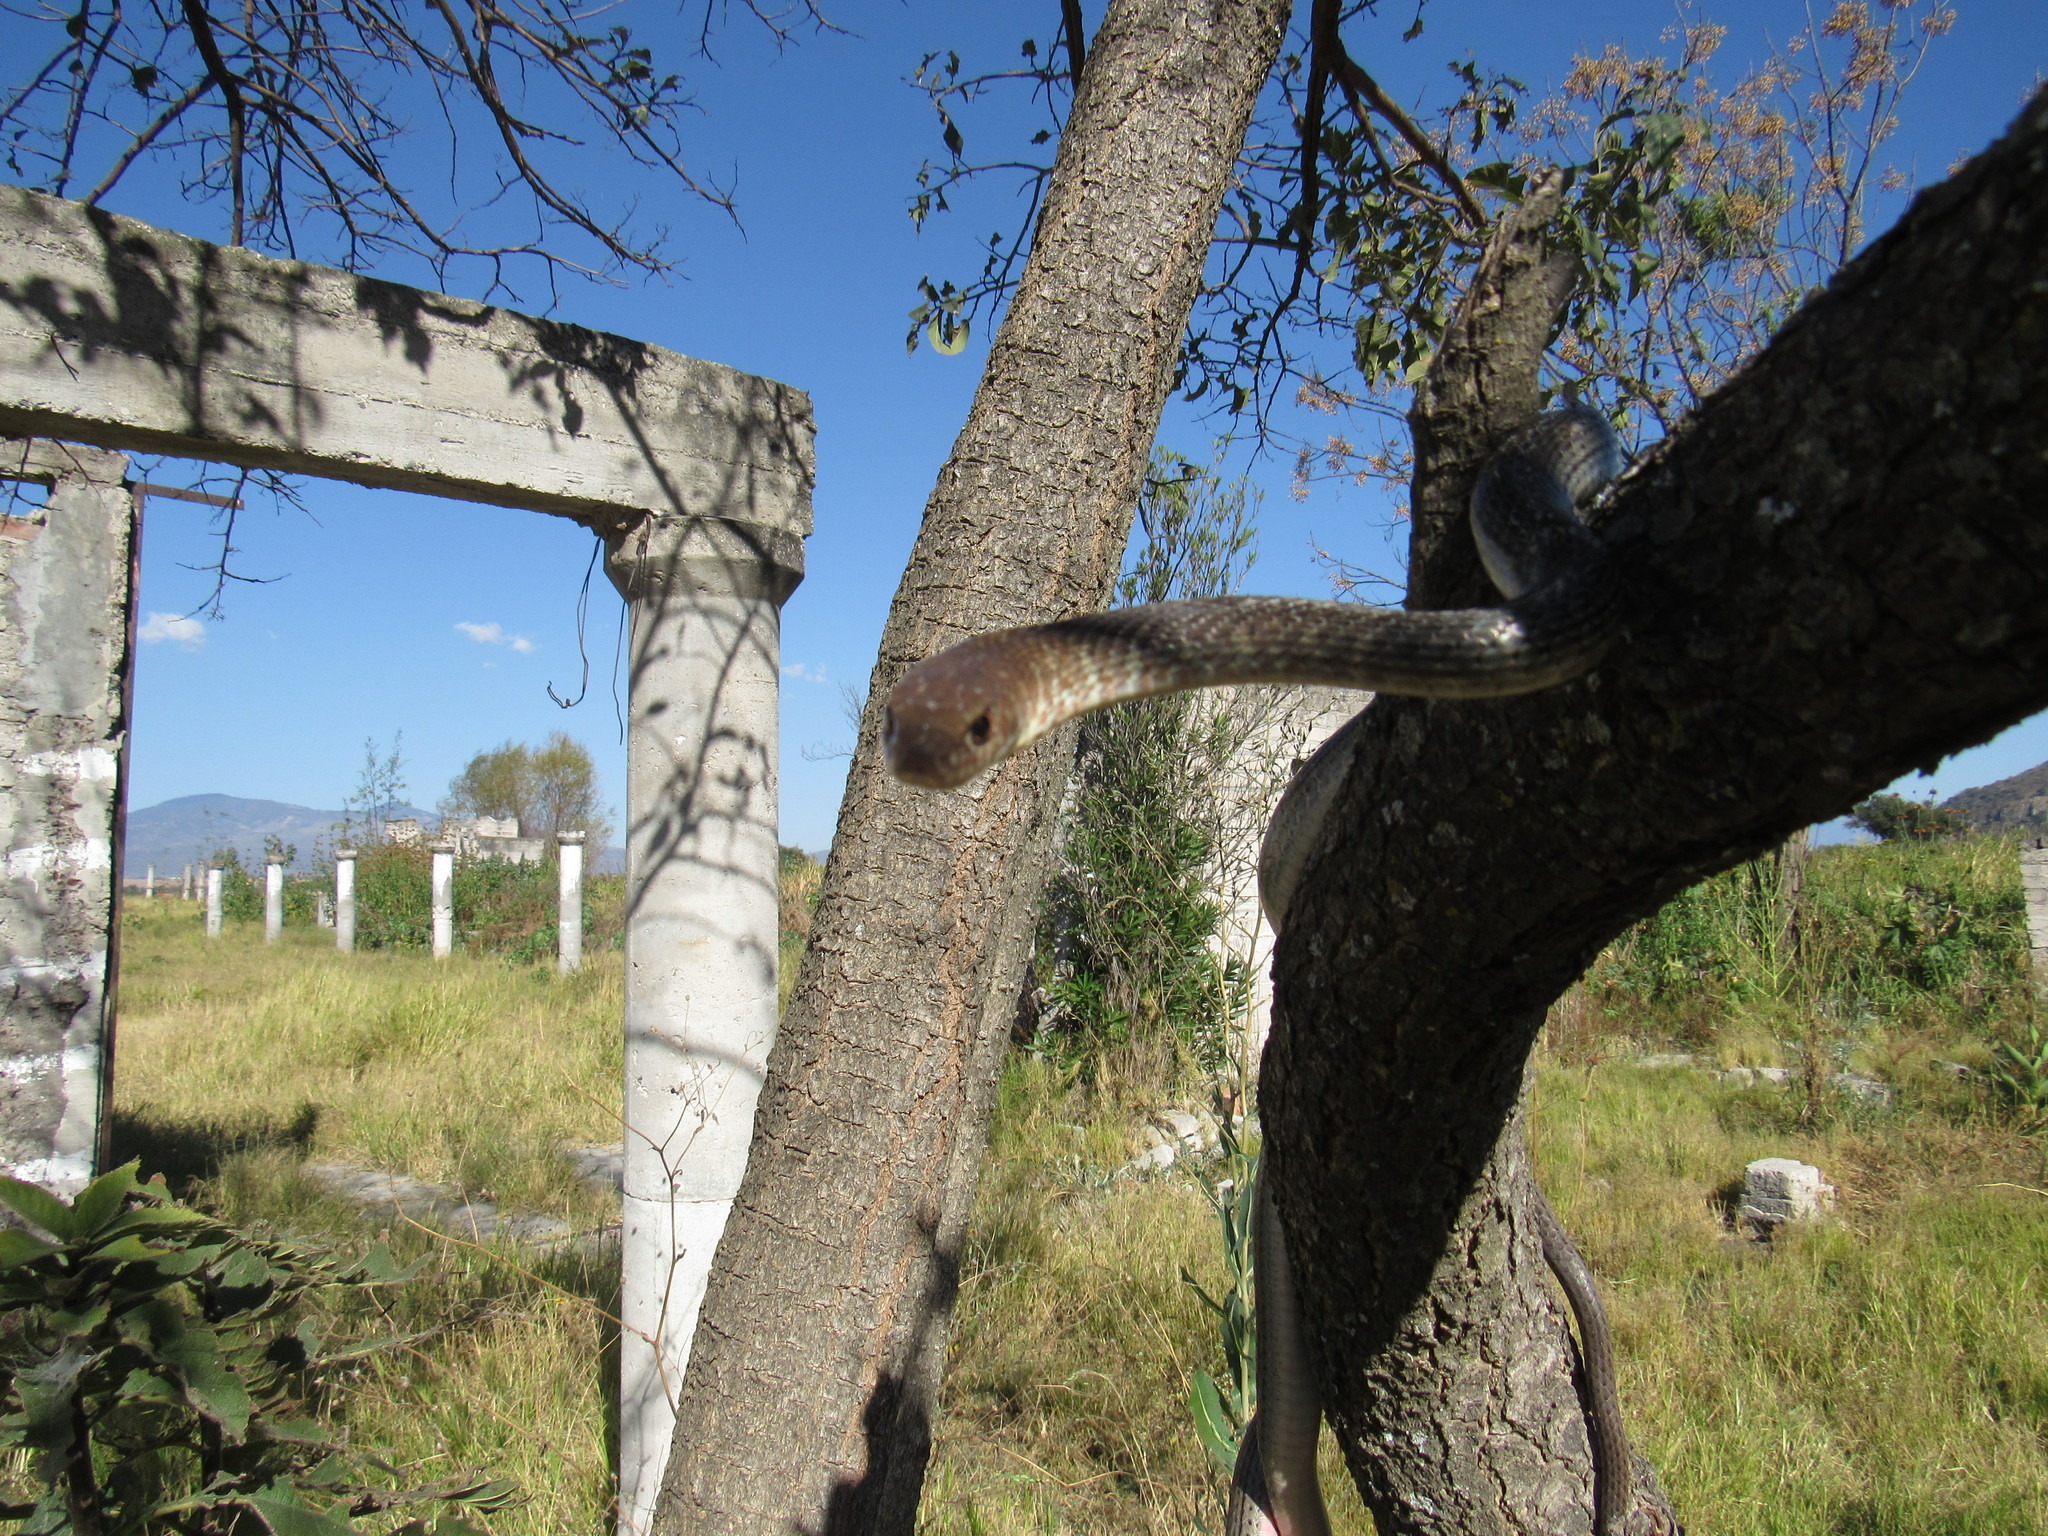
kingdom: Animalia
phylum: Chordata
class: Squamata
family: Colubridae
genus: Masticophis
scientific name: Masticophis mentovarius
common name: Neotropical whip snake
